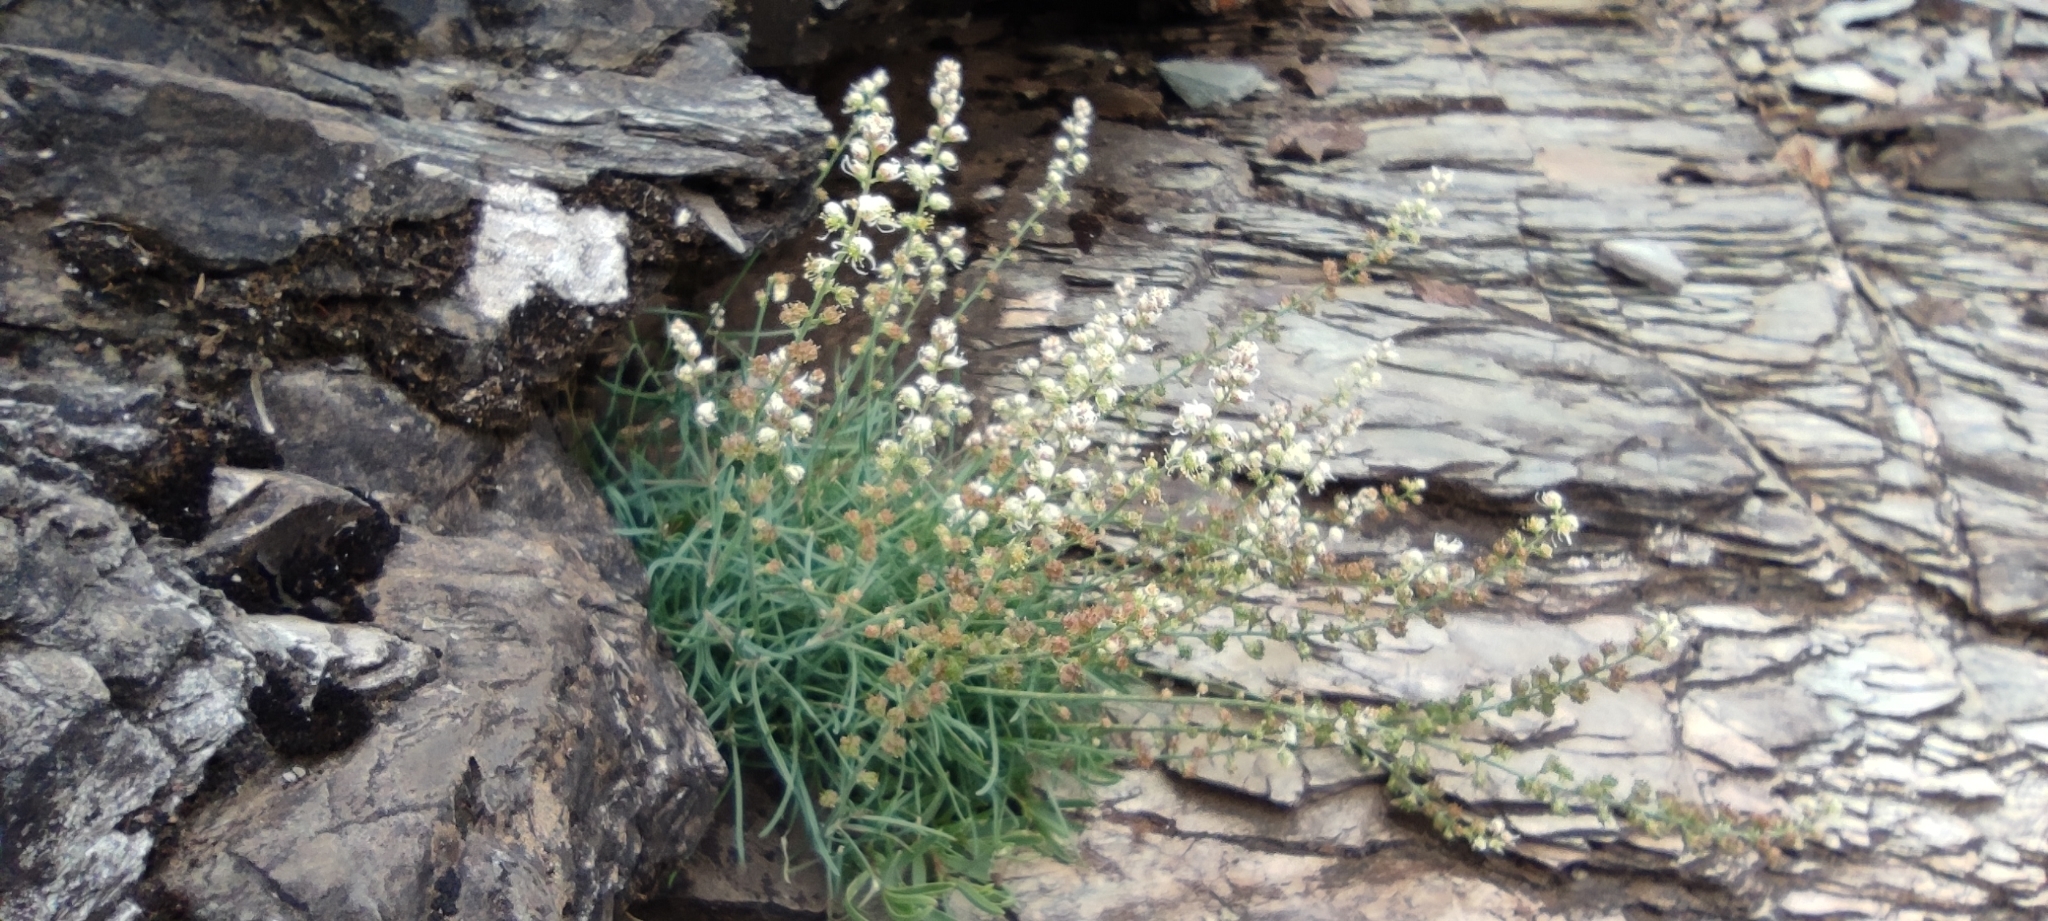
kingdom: Plantae
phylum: Tracheophyta
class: Magnoliopsida
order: Brassicales
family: Resedaceae
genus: Reseda
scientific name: Reseda glauca
